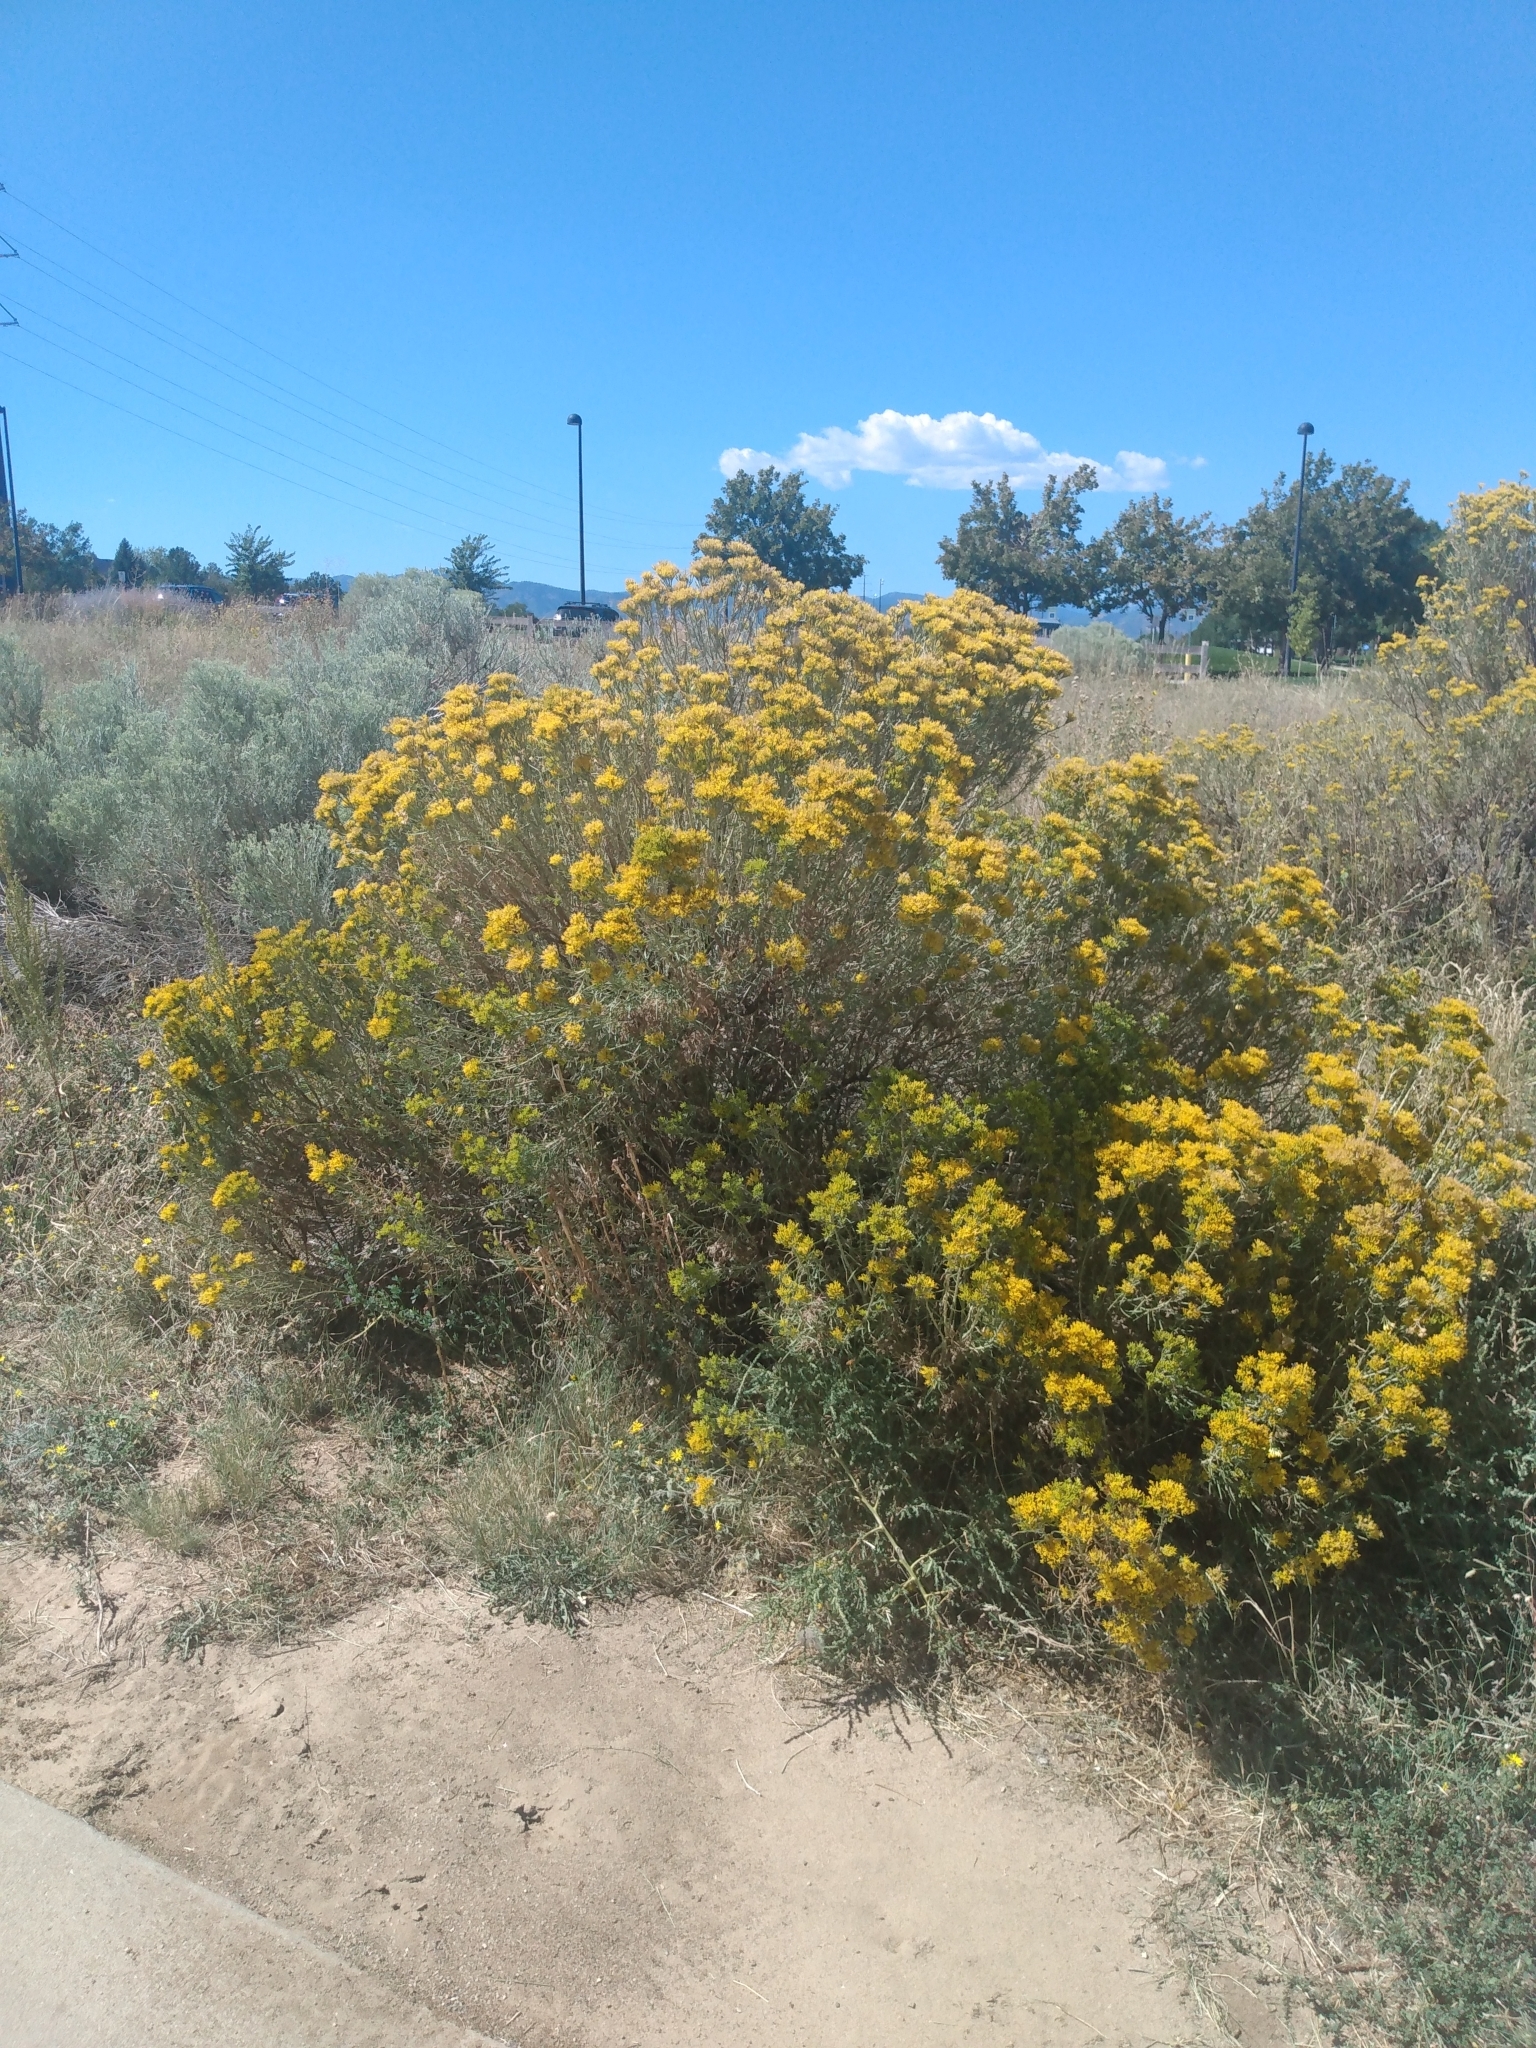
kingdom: Plantae
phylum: Tracheophyta
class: Magnoliopsida
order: Asterales
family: Asteraceae
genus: Ericameria
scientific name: Ericameria nauseosa
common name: Rubber rabbitbrush
